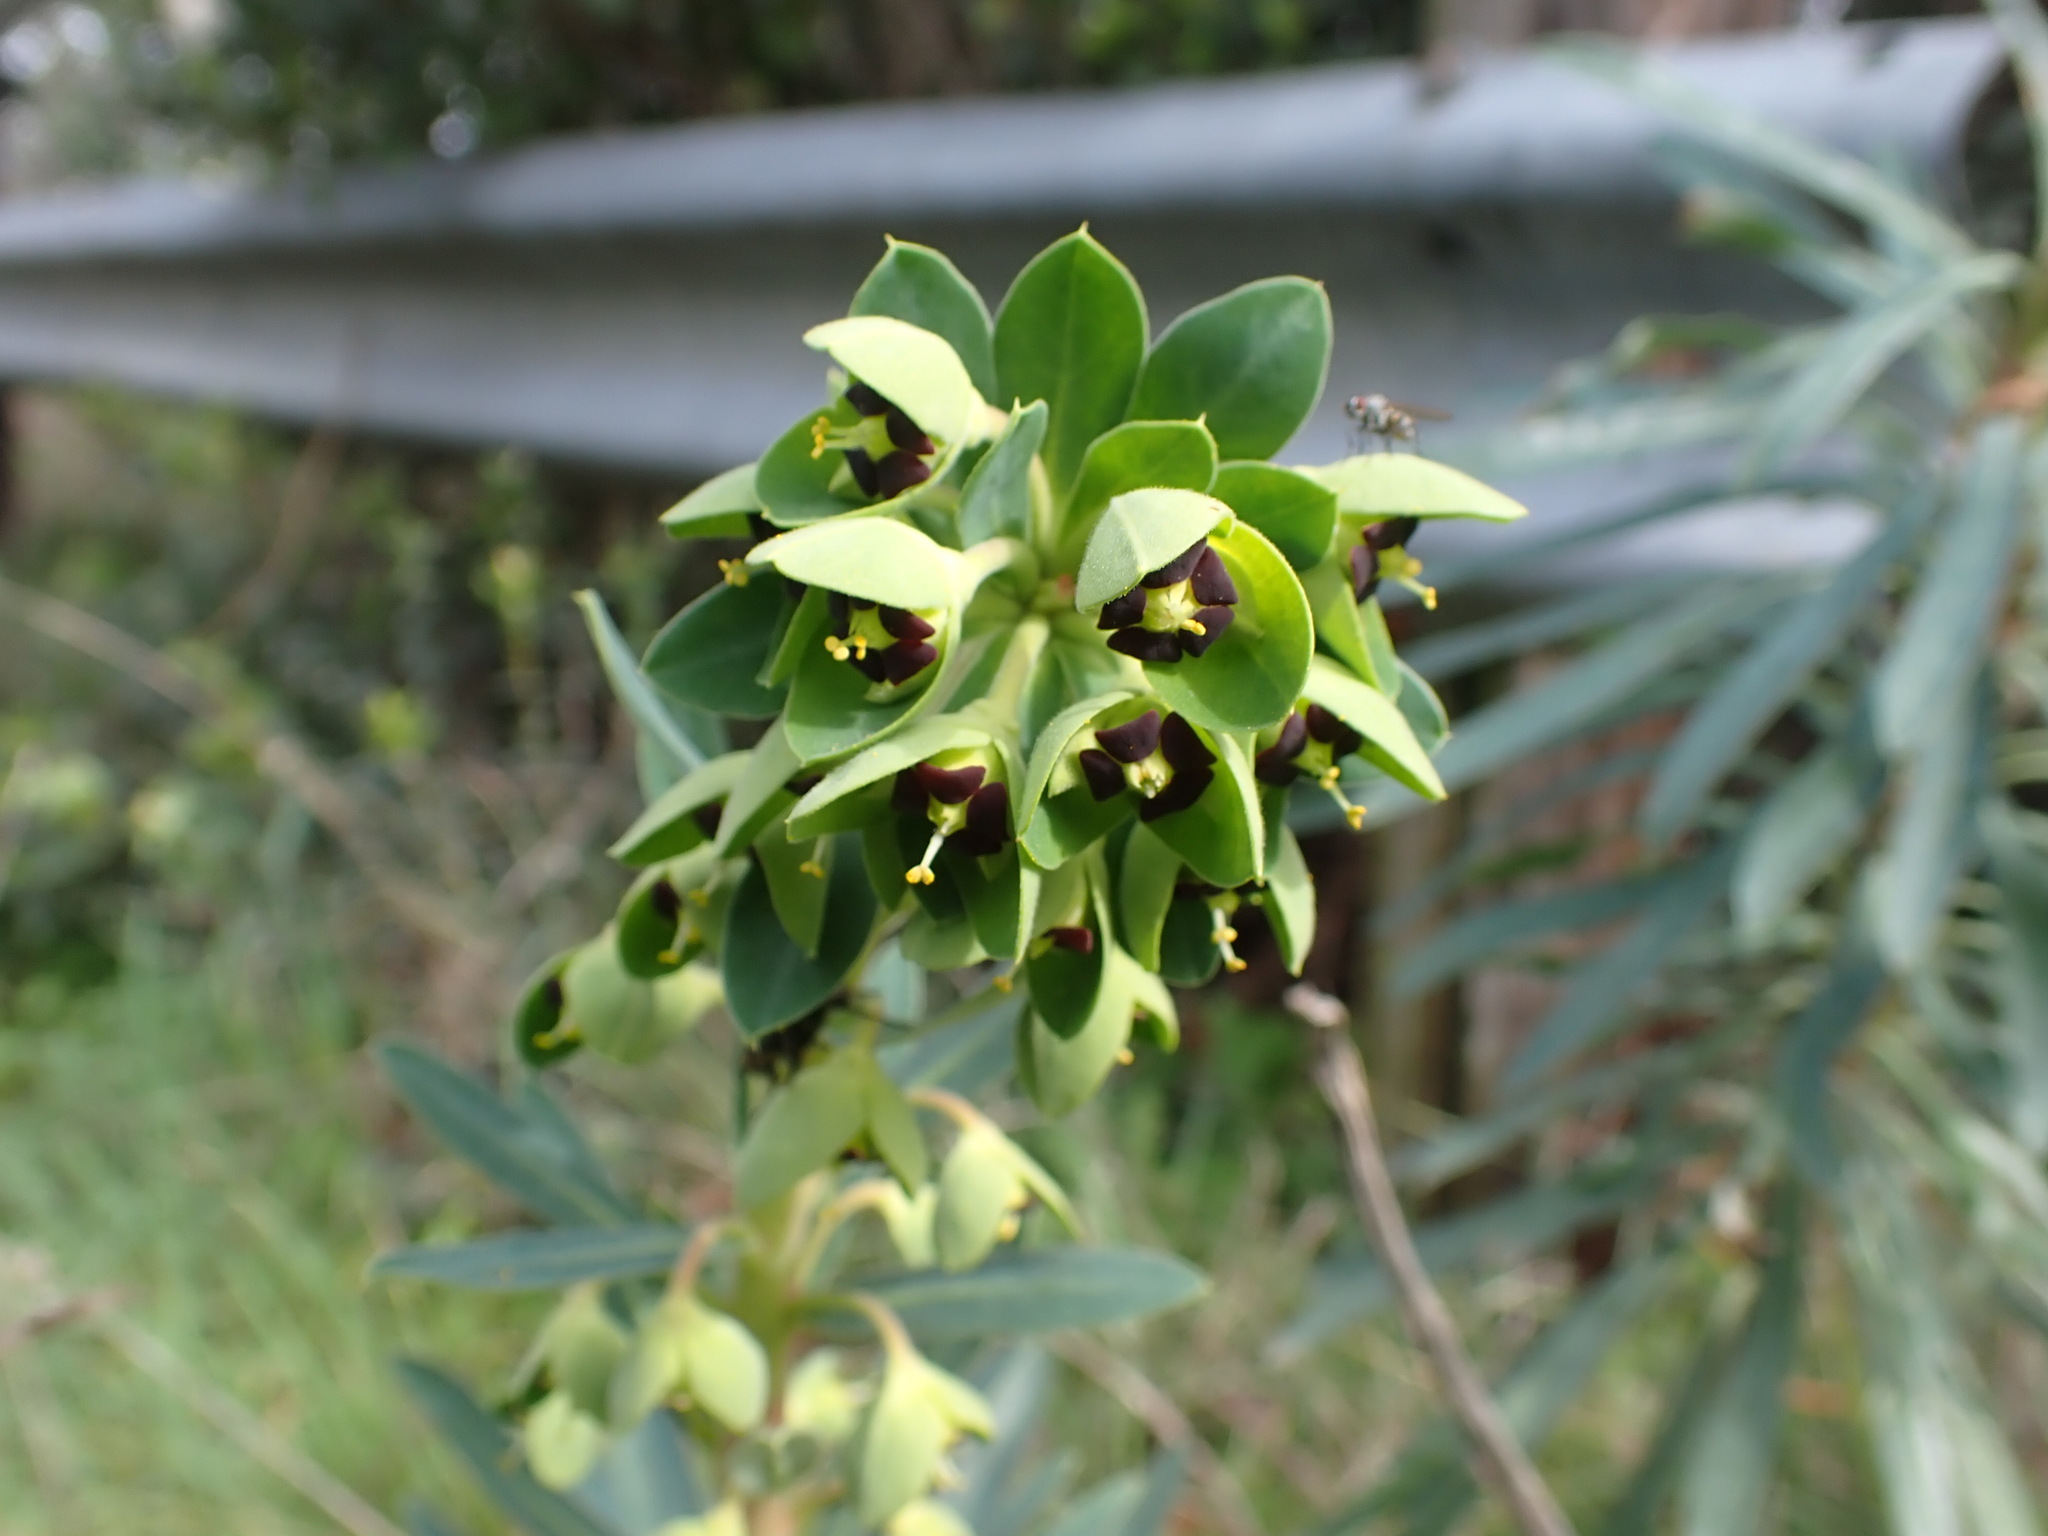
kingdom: Plantae
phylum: Tracheophyta
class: Magnoliopsida
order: Malpighiales
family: Euphorbiaceae
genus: Euphorbia
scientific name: Euphorbia characias
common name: Mediterranean spurge
